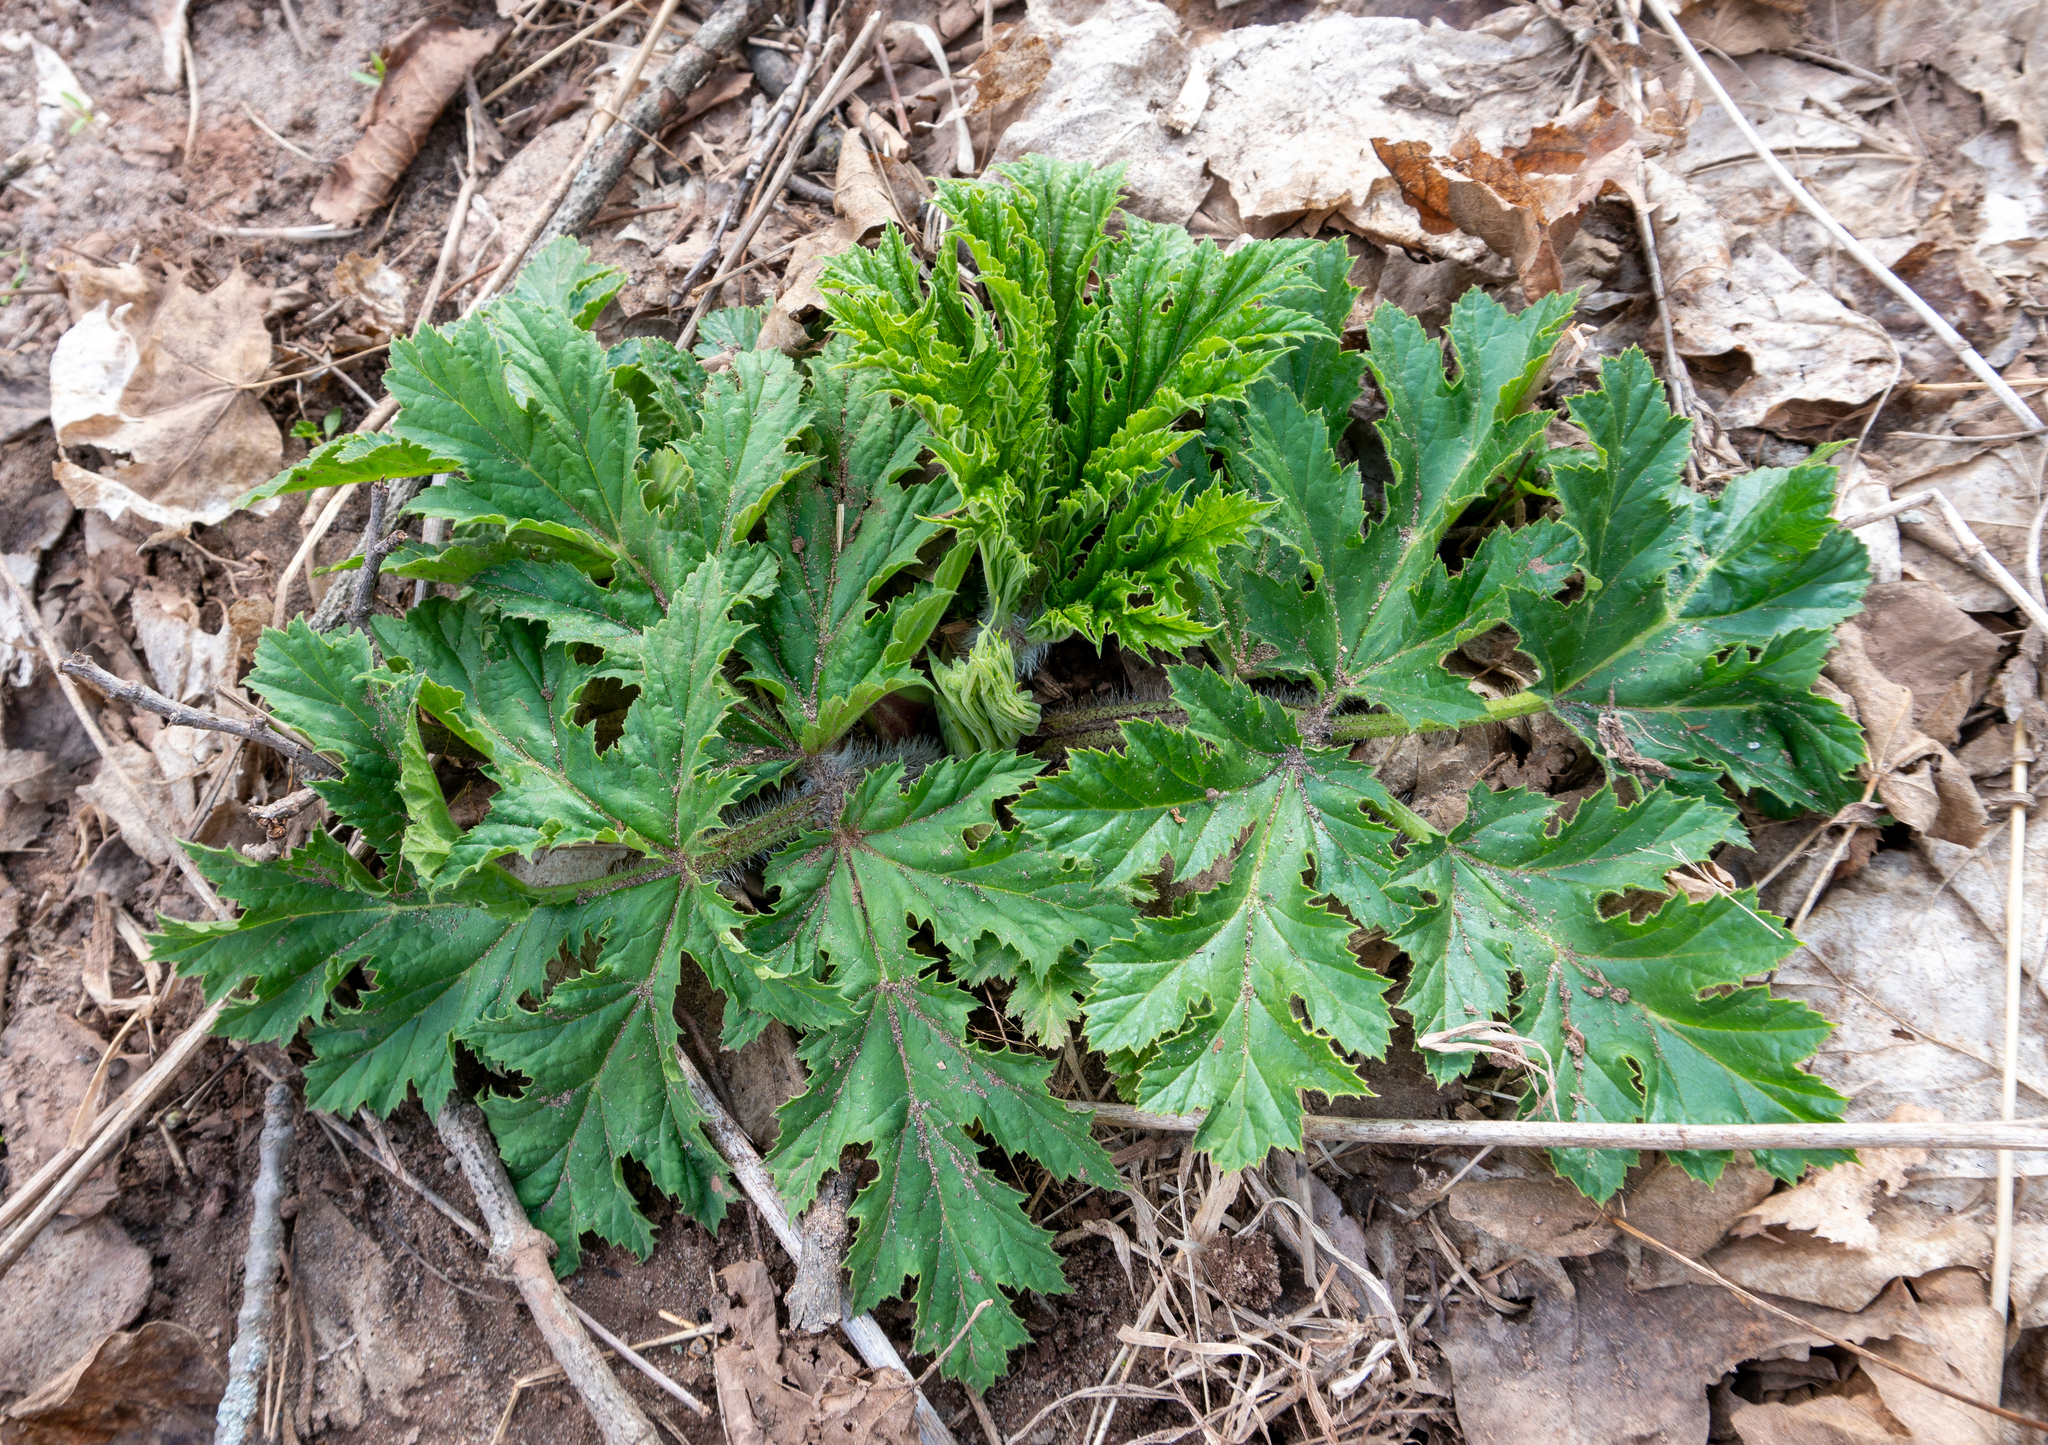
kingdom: Plantae
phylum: Tracheophyta
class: Magnoliopsida
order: Apiales
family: Apiaceae
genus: Heracleum
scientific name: Heracleum mantegazzianum
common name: Giant hogweed
